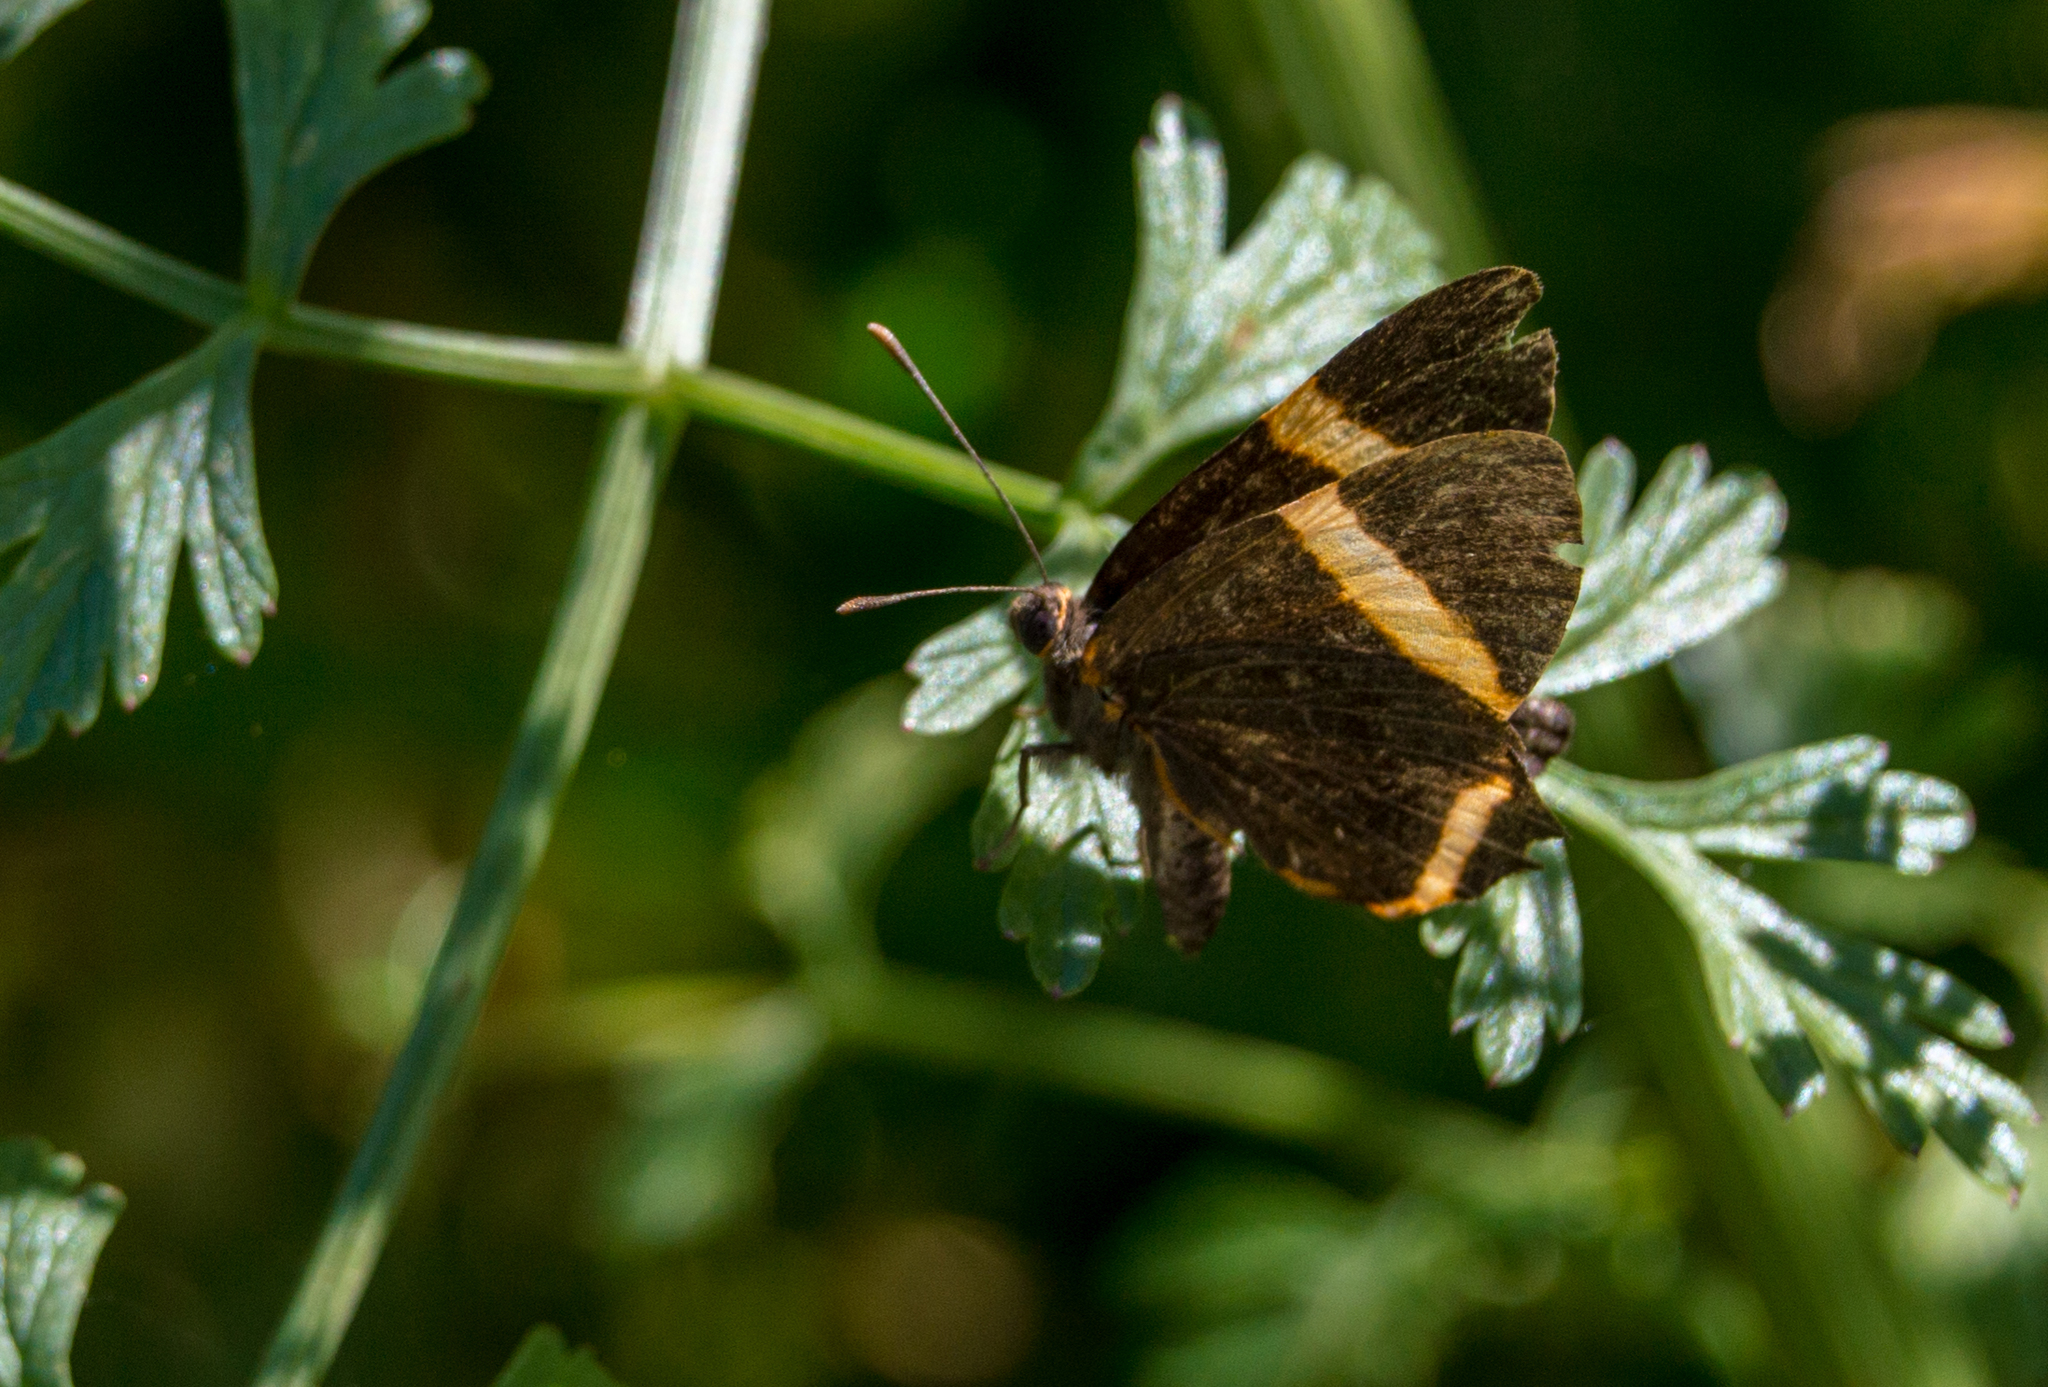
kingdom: Animalia
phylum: Arthropoda
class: Insecta
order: Lepidoptera
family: Riodinidae
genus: Riodina
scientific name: Riodina lysippoides
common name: Little dancer metalmark
